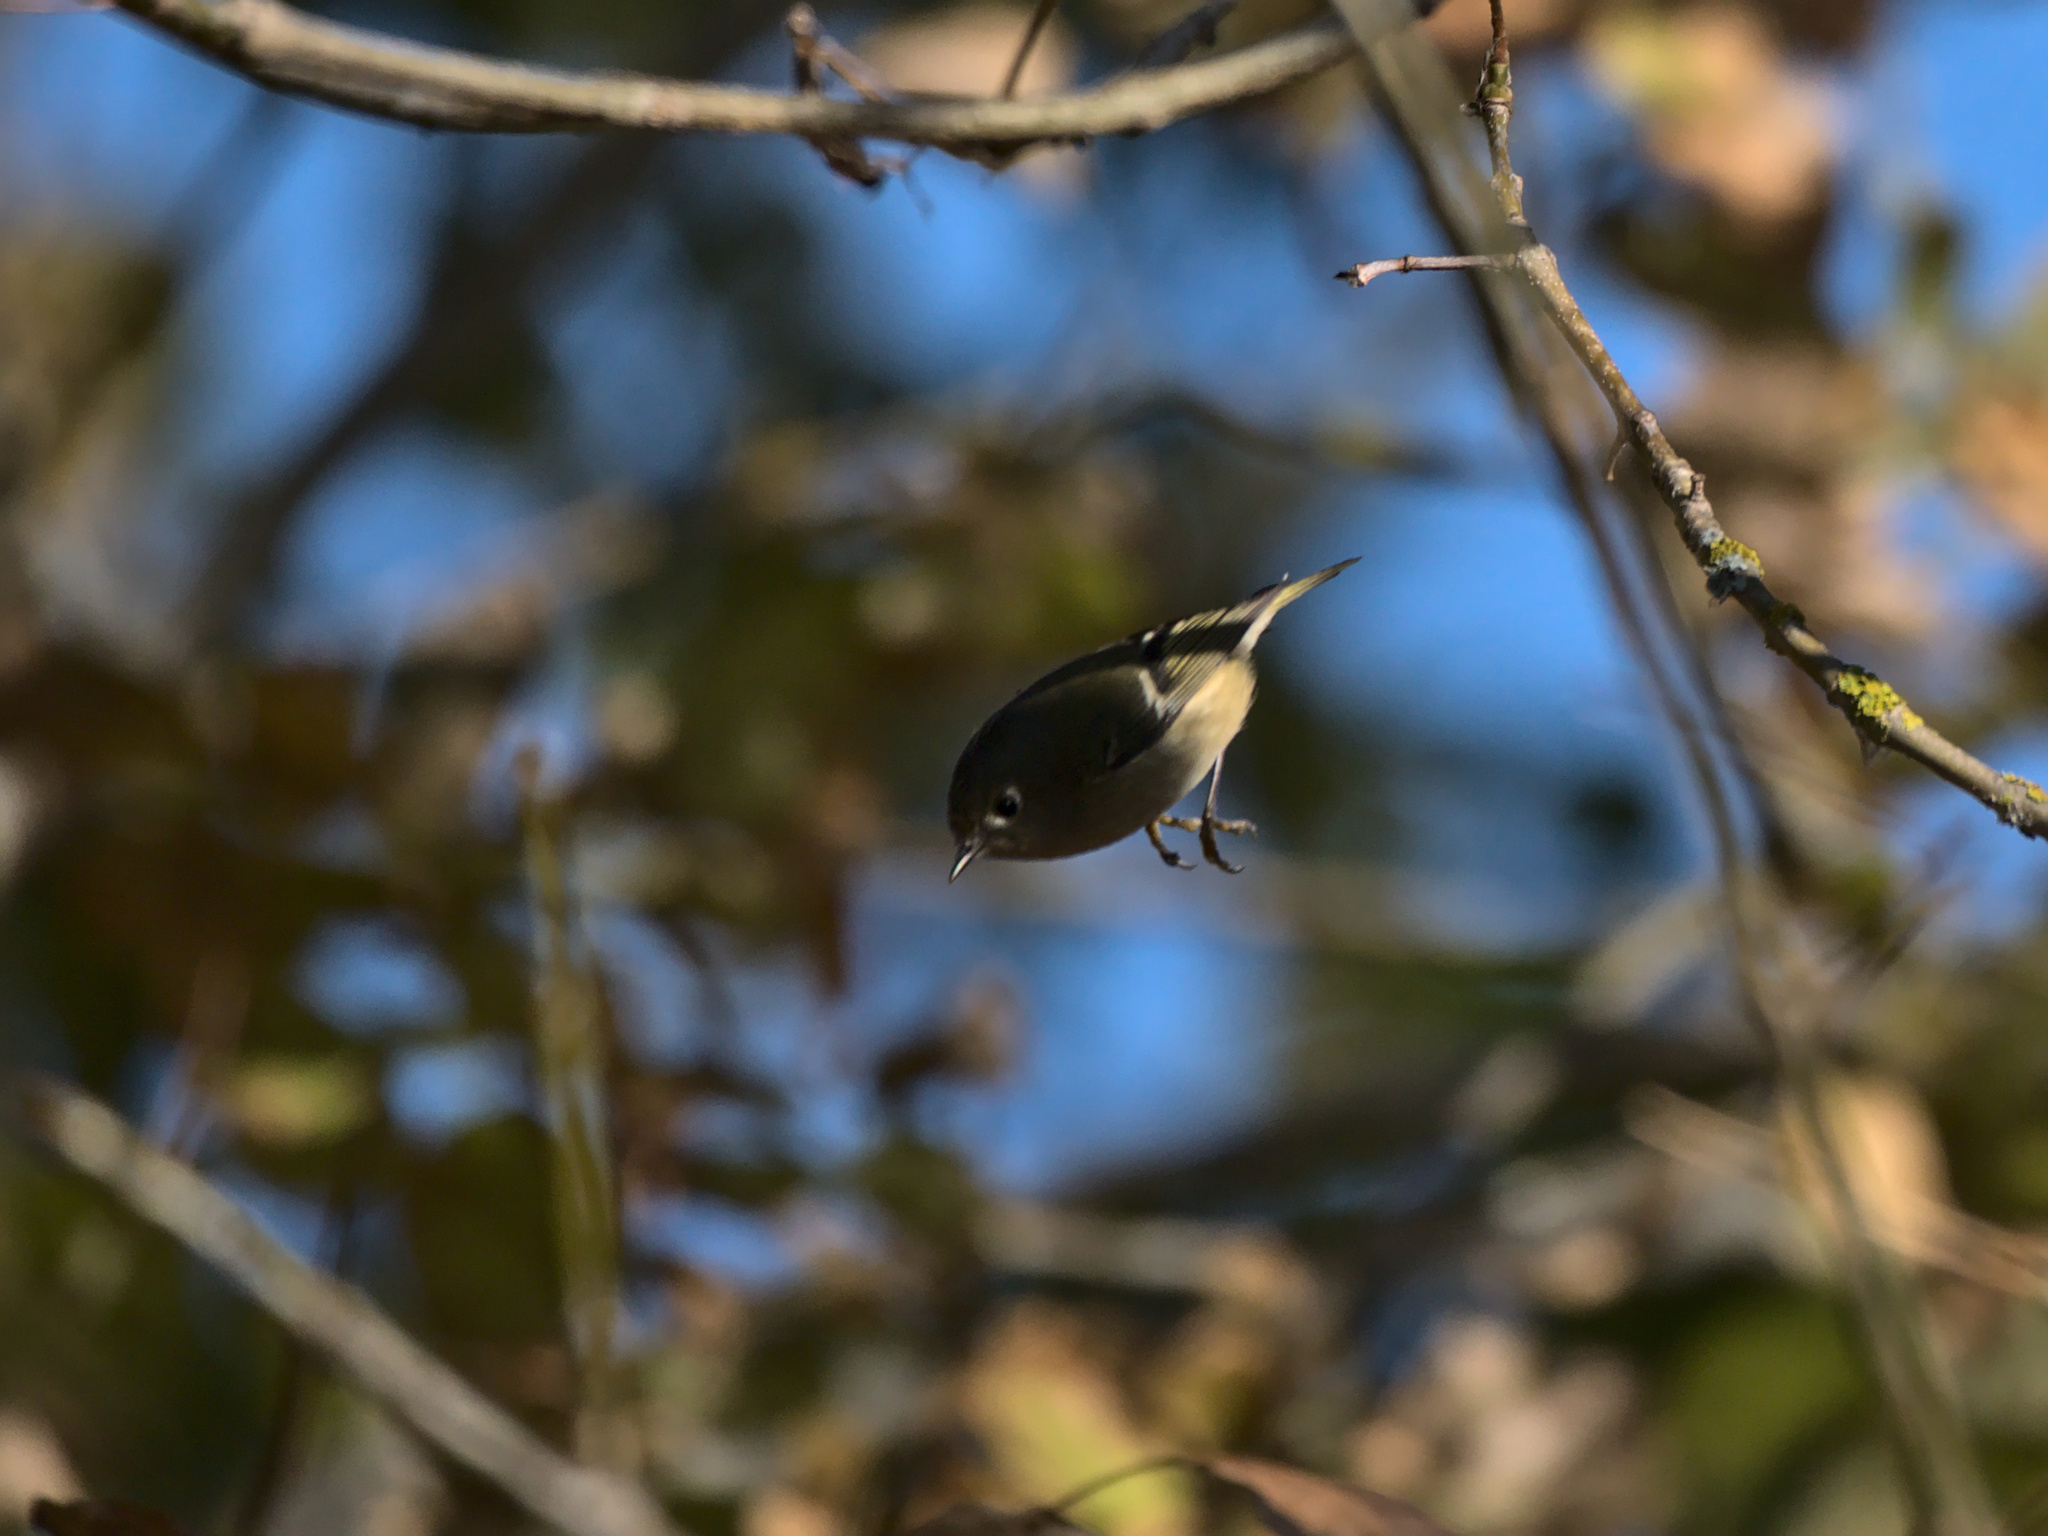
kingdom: Animalia
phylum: Chordata
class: Aves
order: Passeriformes
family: Regulidae
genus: Regulus
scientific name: Regulus calendula
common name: Ruby-crowned kinglet
